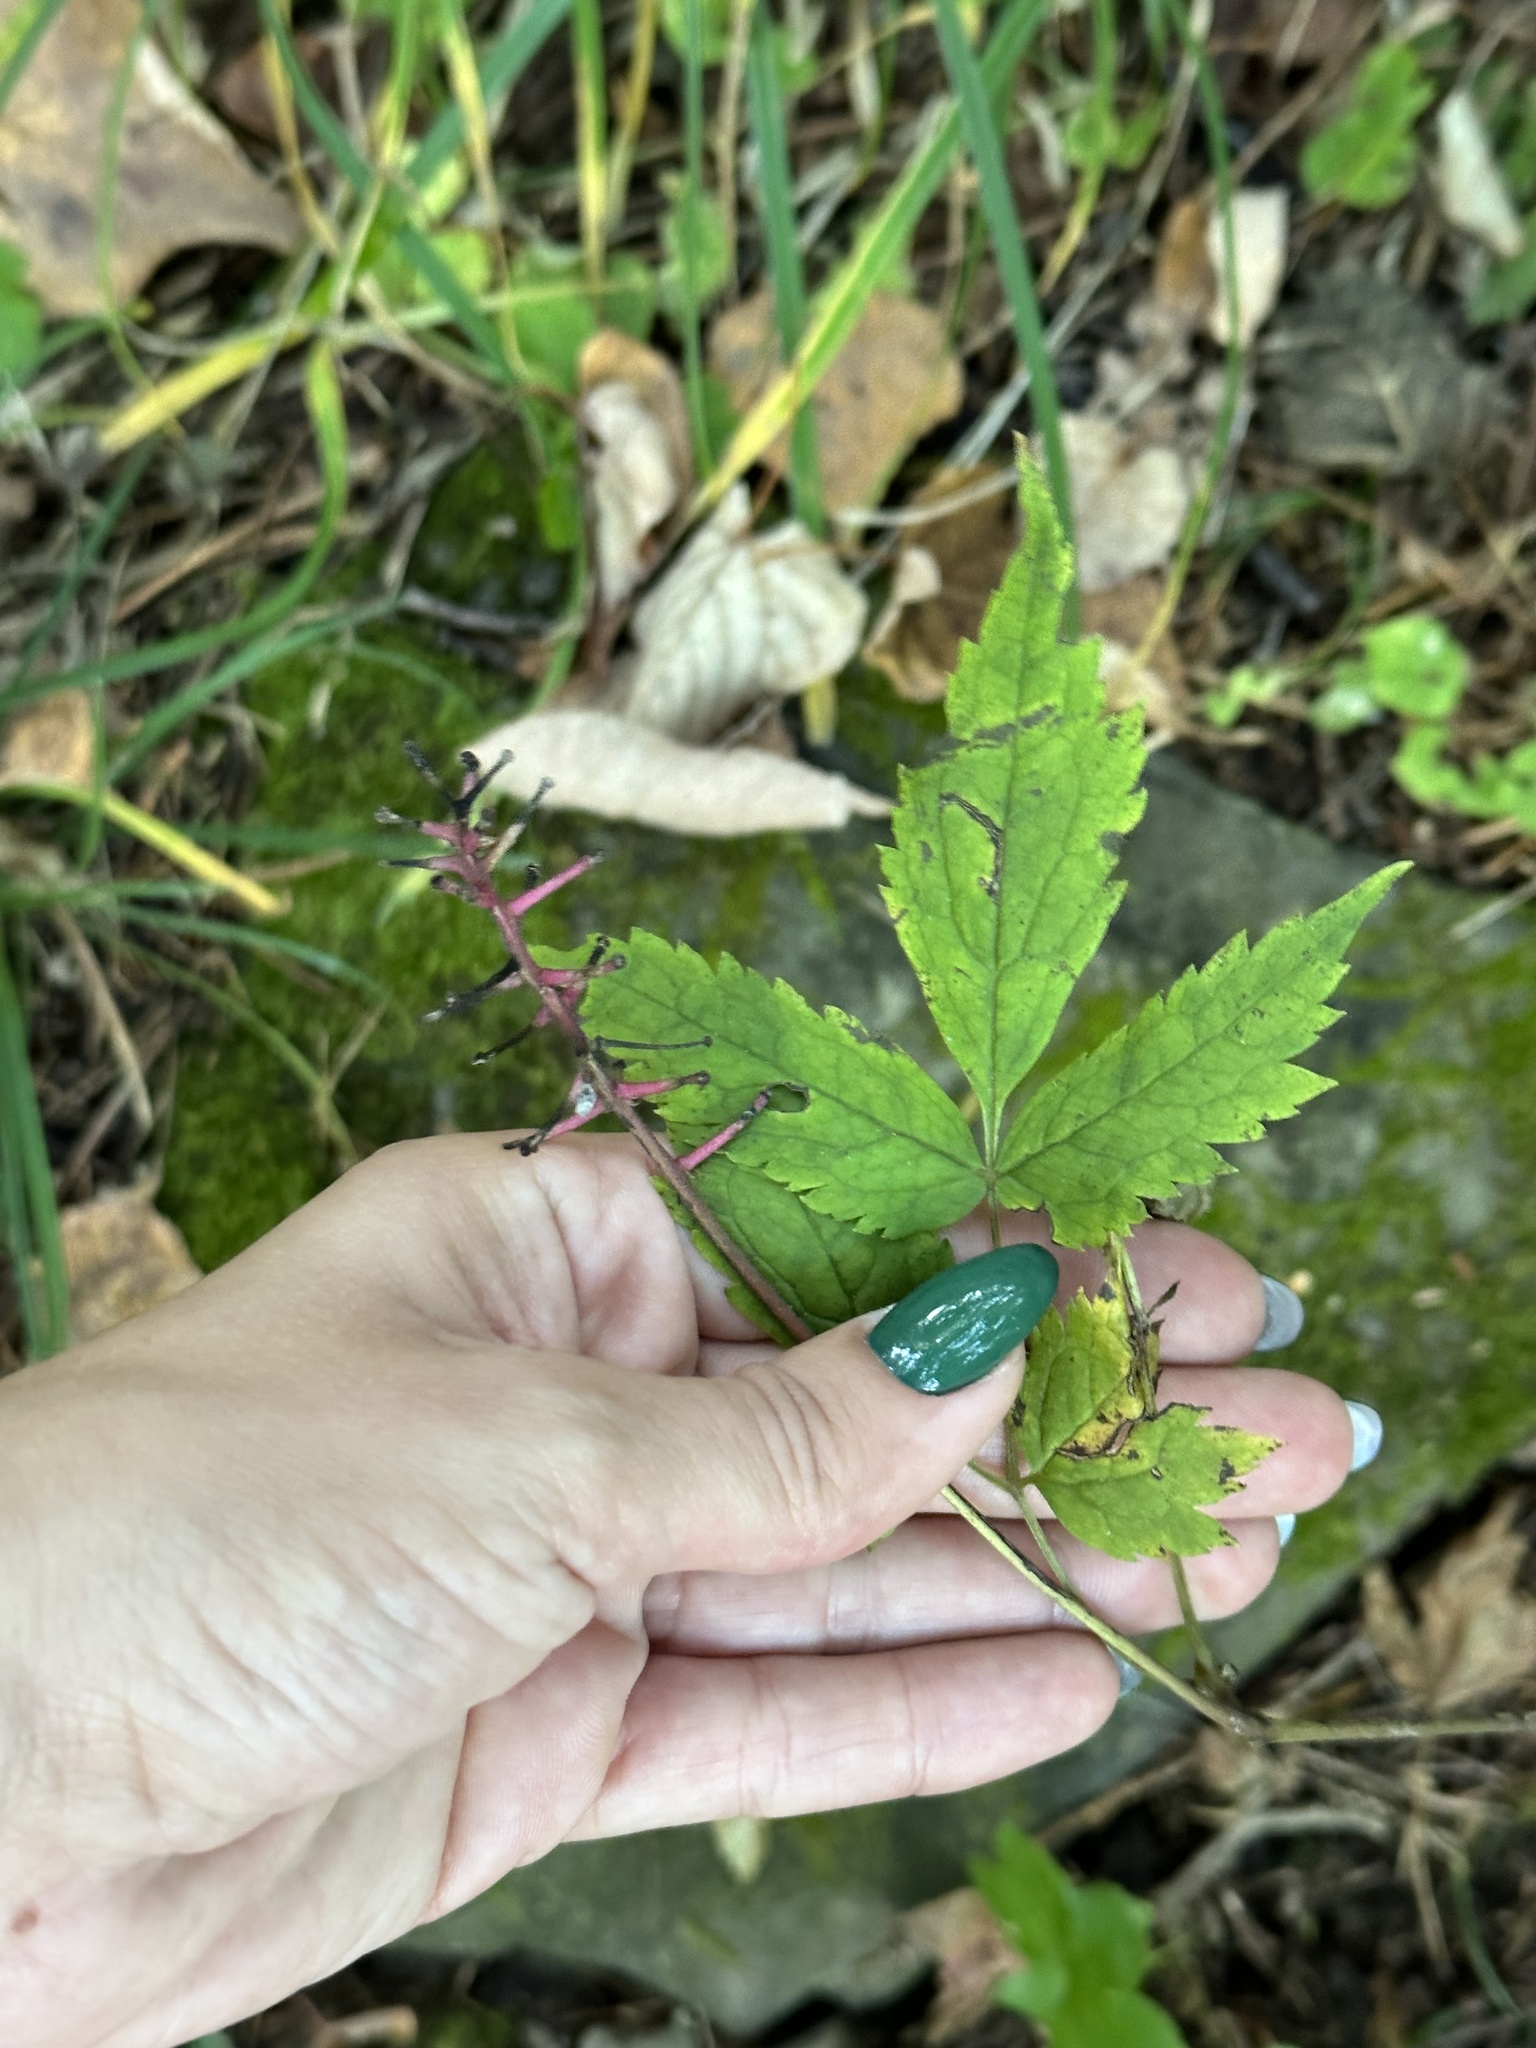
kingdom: Plantae
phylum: Tracheophyta
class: Magnoliopsida
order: Ranunculales
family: Ranunculaceae
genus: Actaea
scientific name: Actaea asiatica
